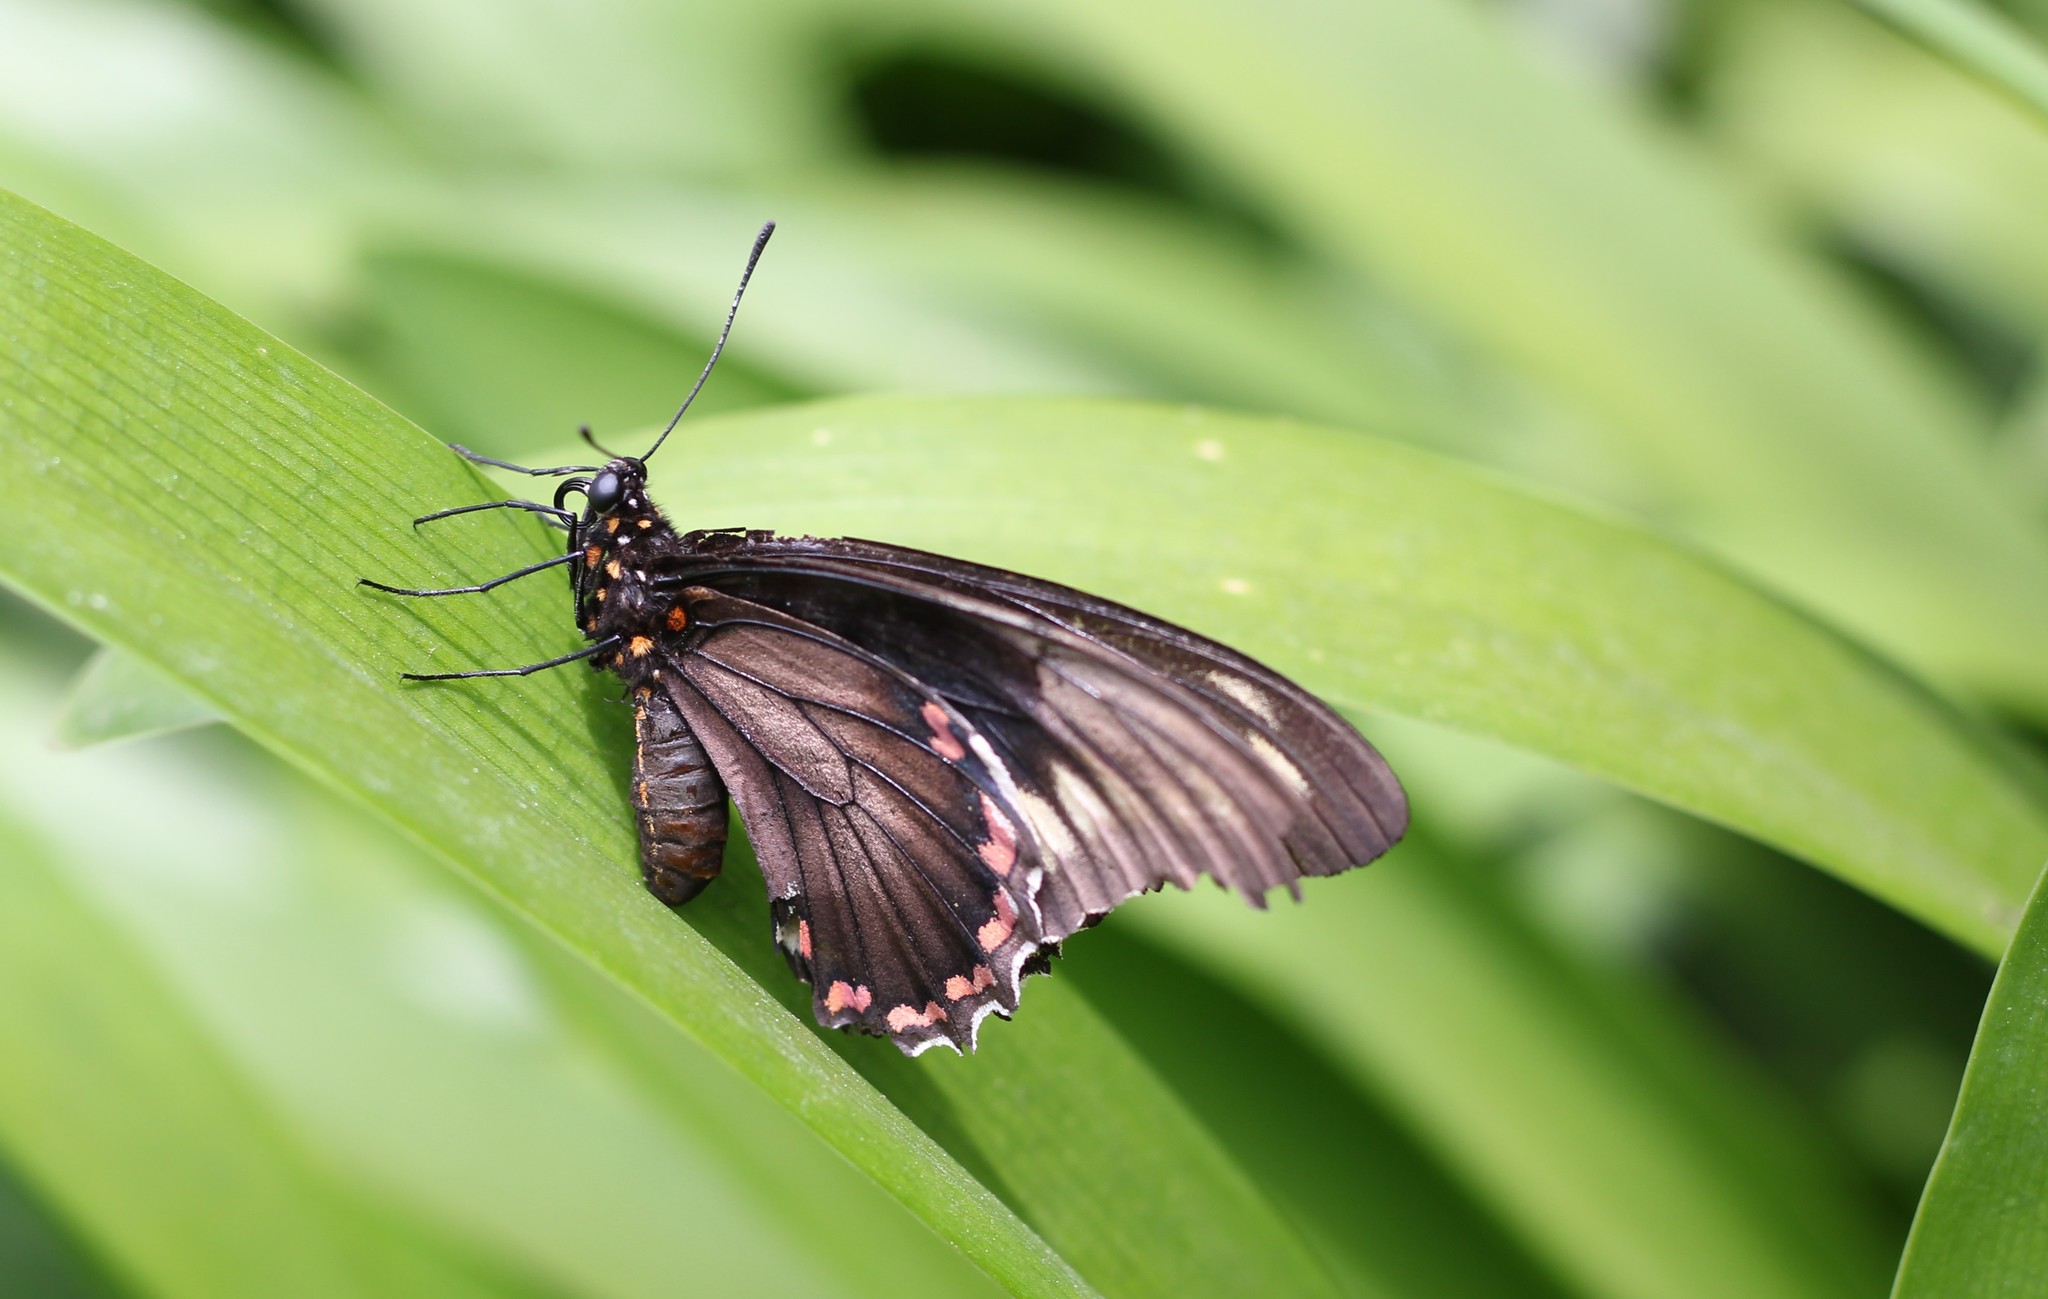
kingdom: Animalia
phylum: Arthropoda
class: Insecta
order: Lepidoptera
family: Papilionidae
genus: Battus
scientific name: Battus polydamas
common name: Polydamas swallowtail
